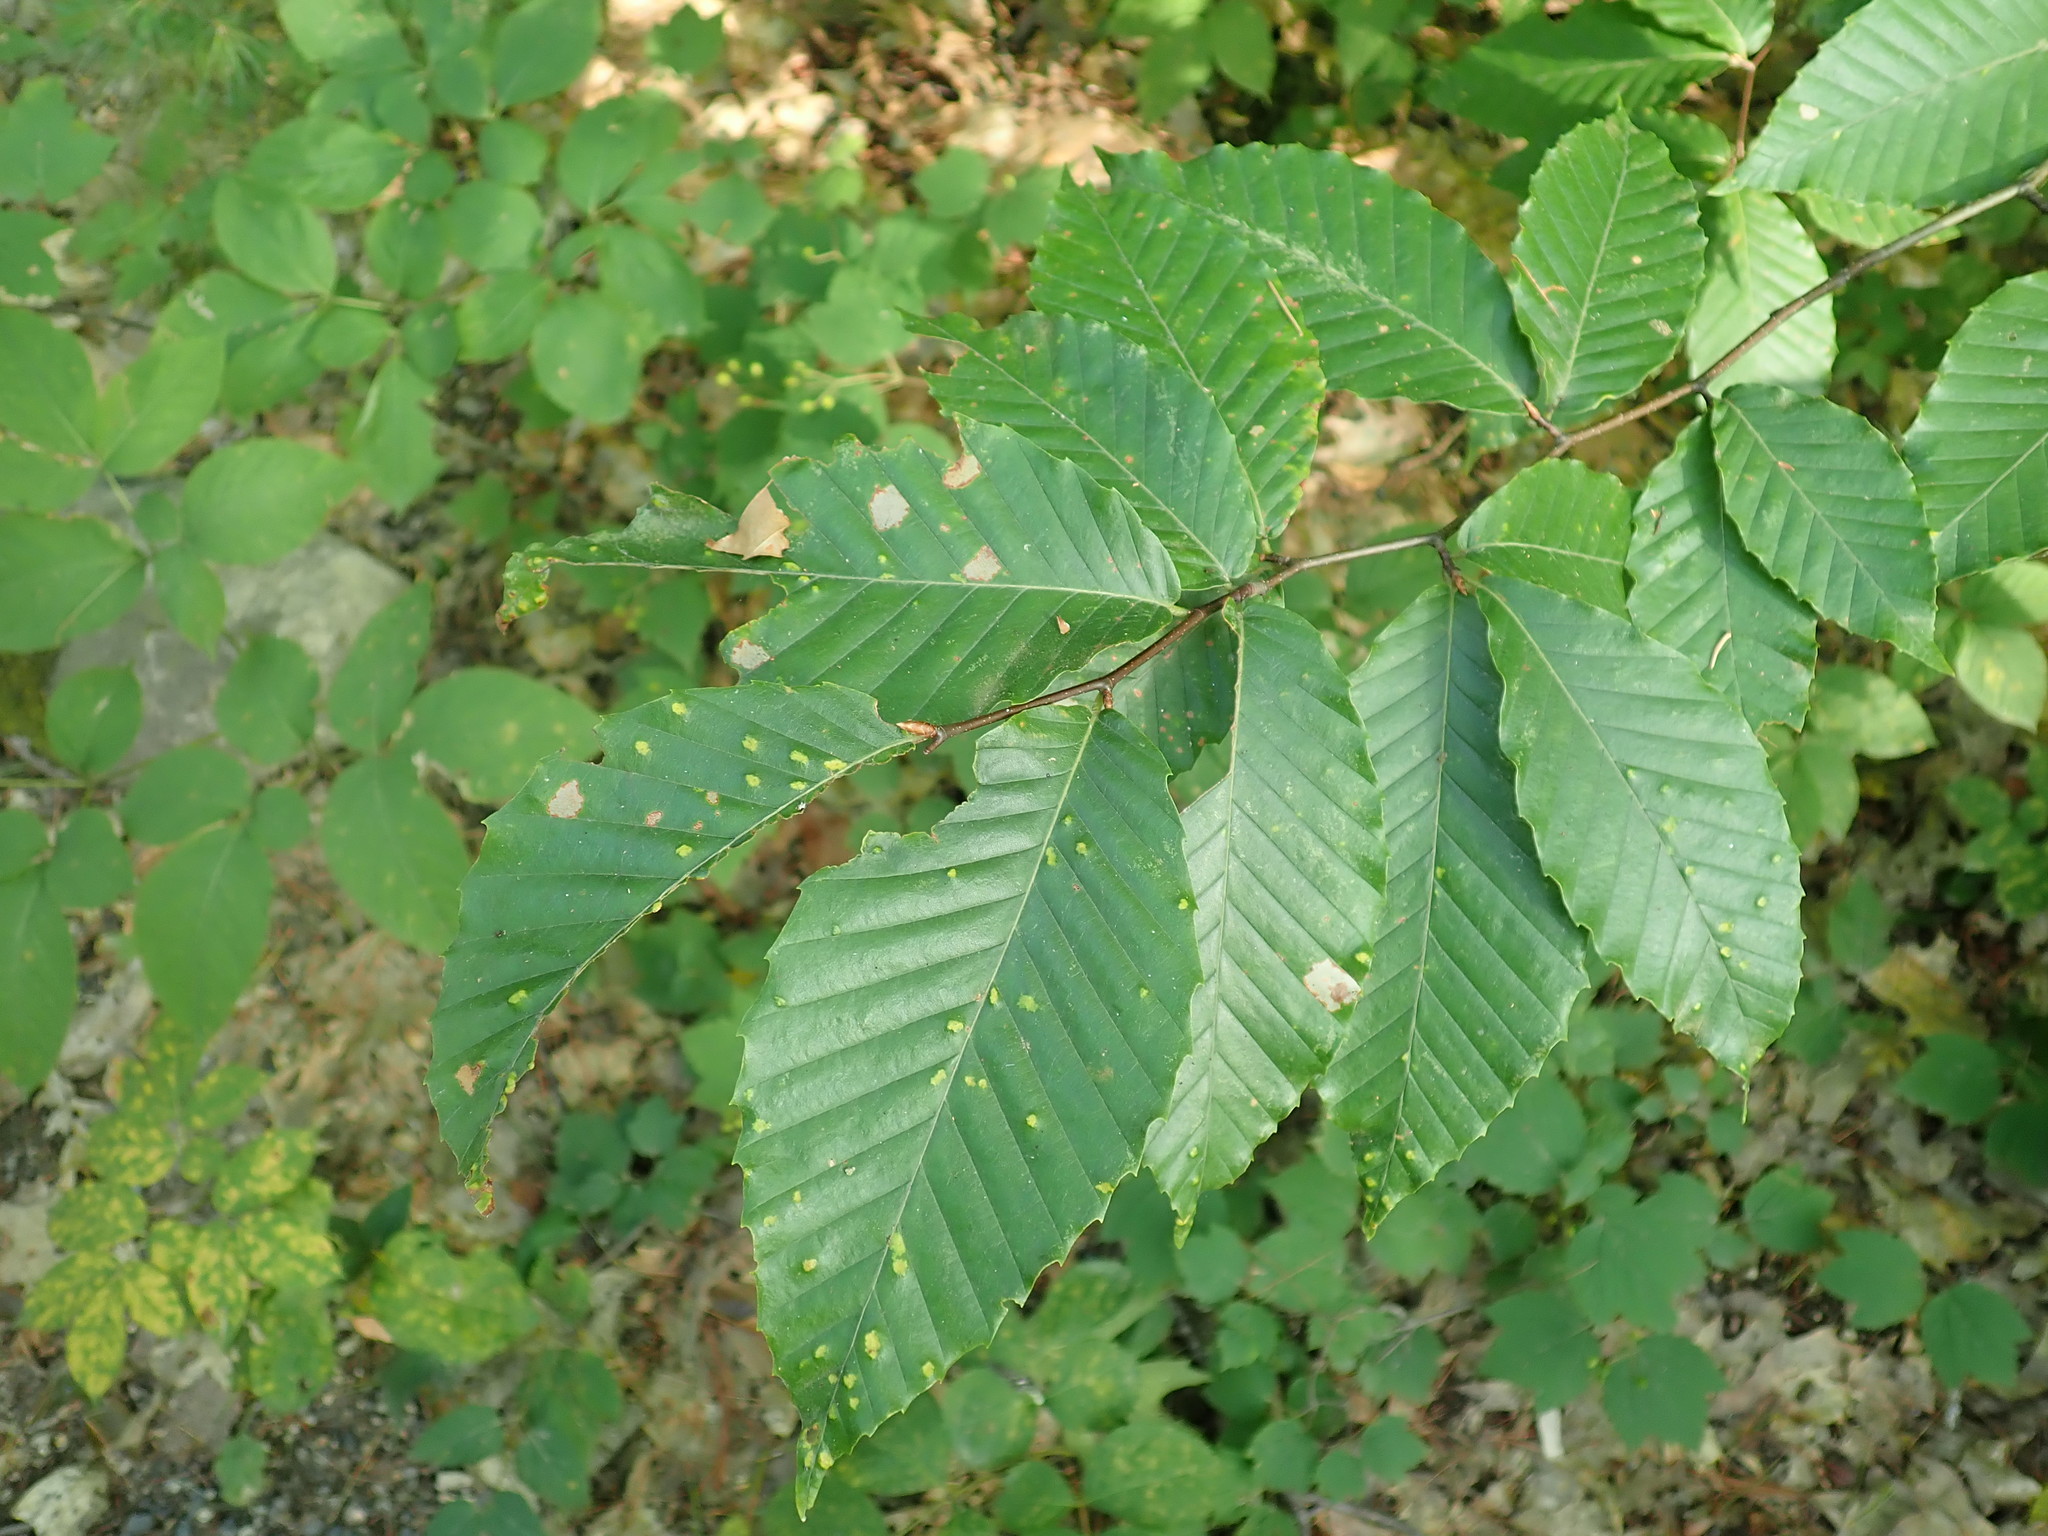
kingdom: Plantae
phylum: Tracheophyta
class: Magnoliopsida
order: Fagales
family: Fagaceae
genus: Fagus
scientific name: Fagus grandifolia
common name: American beech
